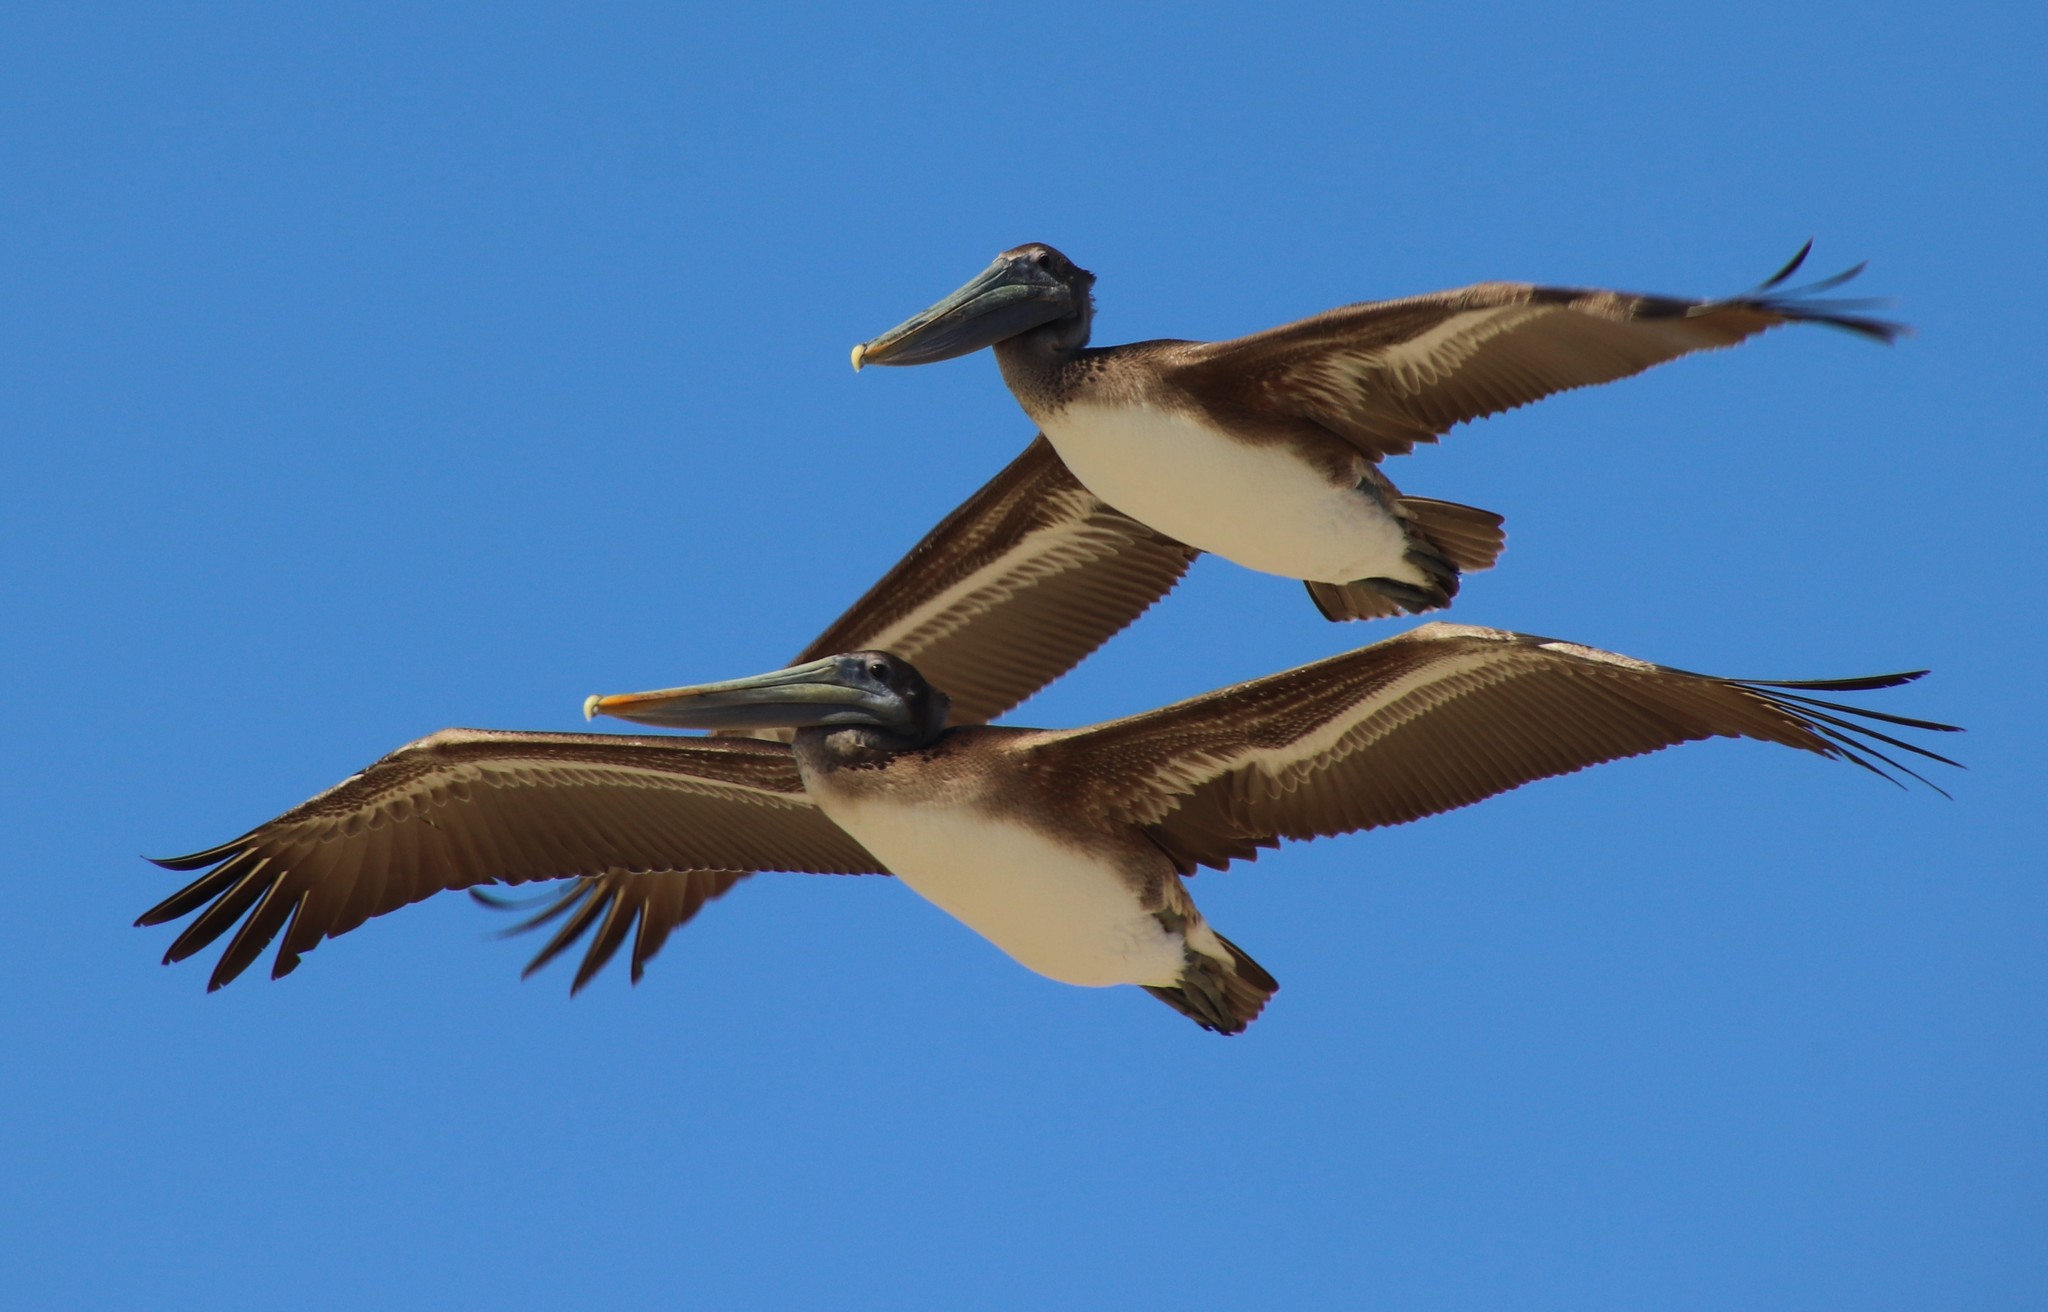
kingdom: Animalia
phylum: Chordata
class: Aves
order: Pelecaniformes
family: Pelecanidae
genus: Pelecanus
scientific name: Pelecanus occidentalis
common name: Brown pelican
